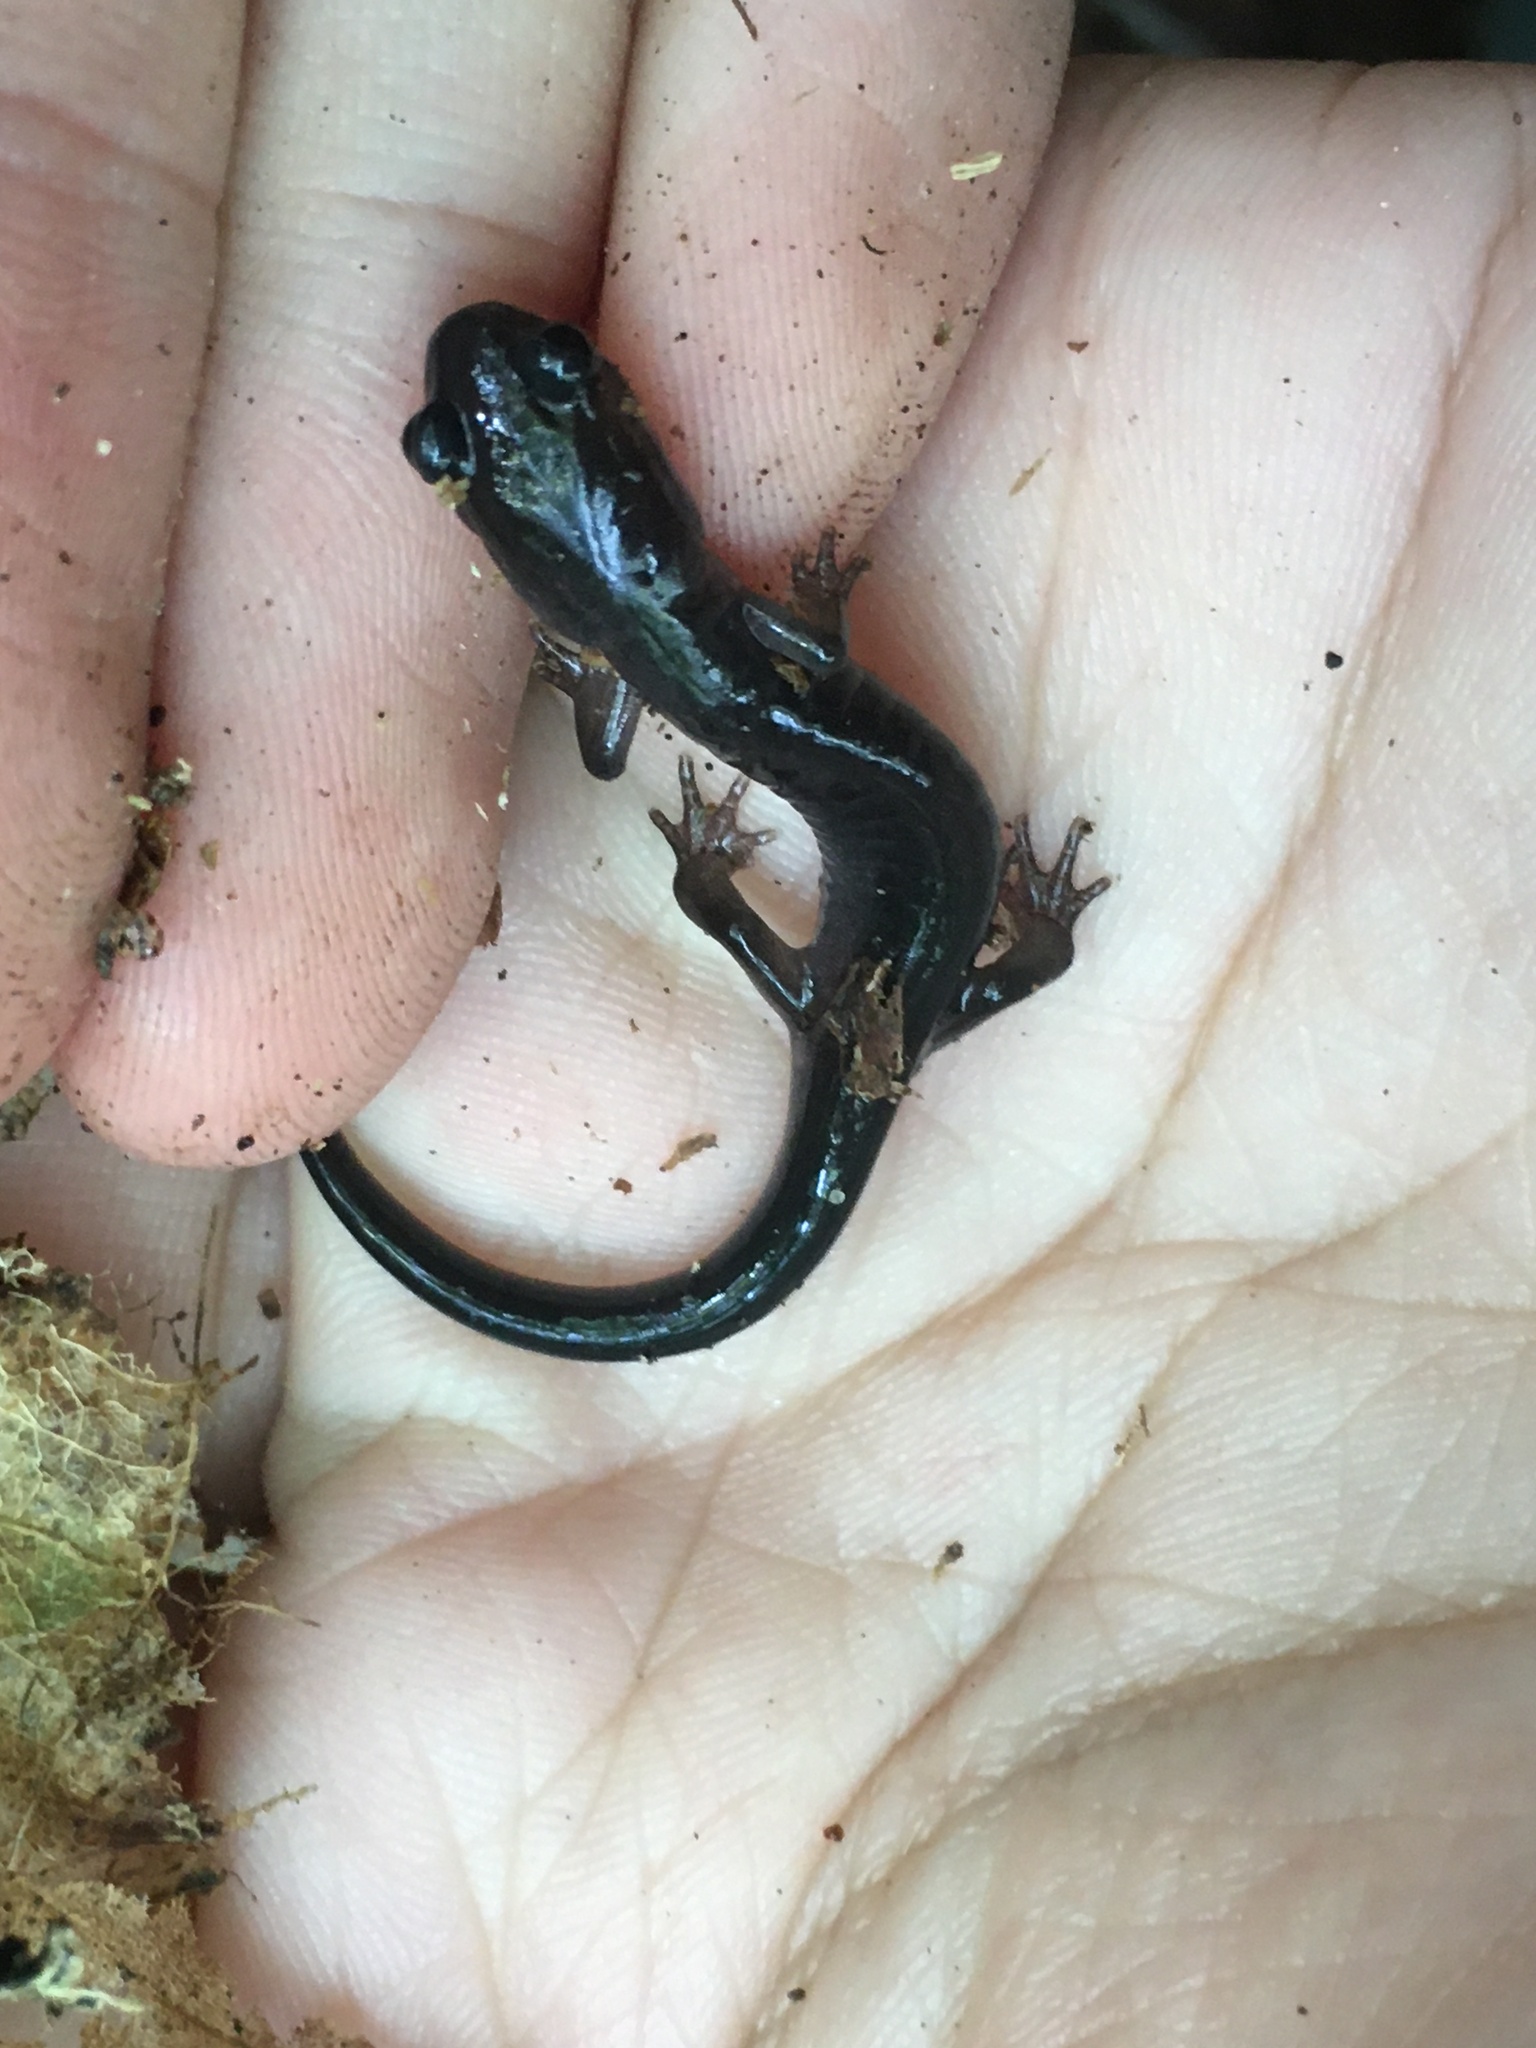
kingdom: Animalia
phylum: Chordata
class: Amphibia
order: Caudata
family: Plethodontidae
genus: Plethodon
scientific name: Plethodon montanus
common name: Northern gray-cheeked salamander
